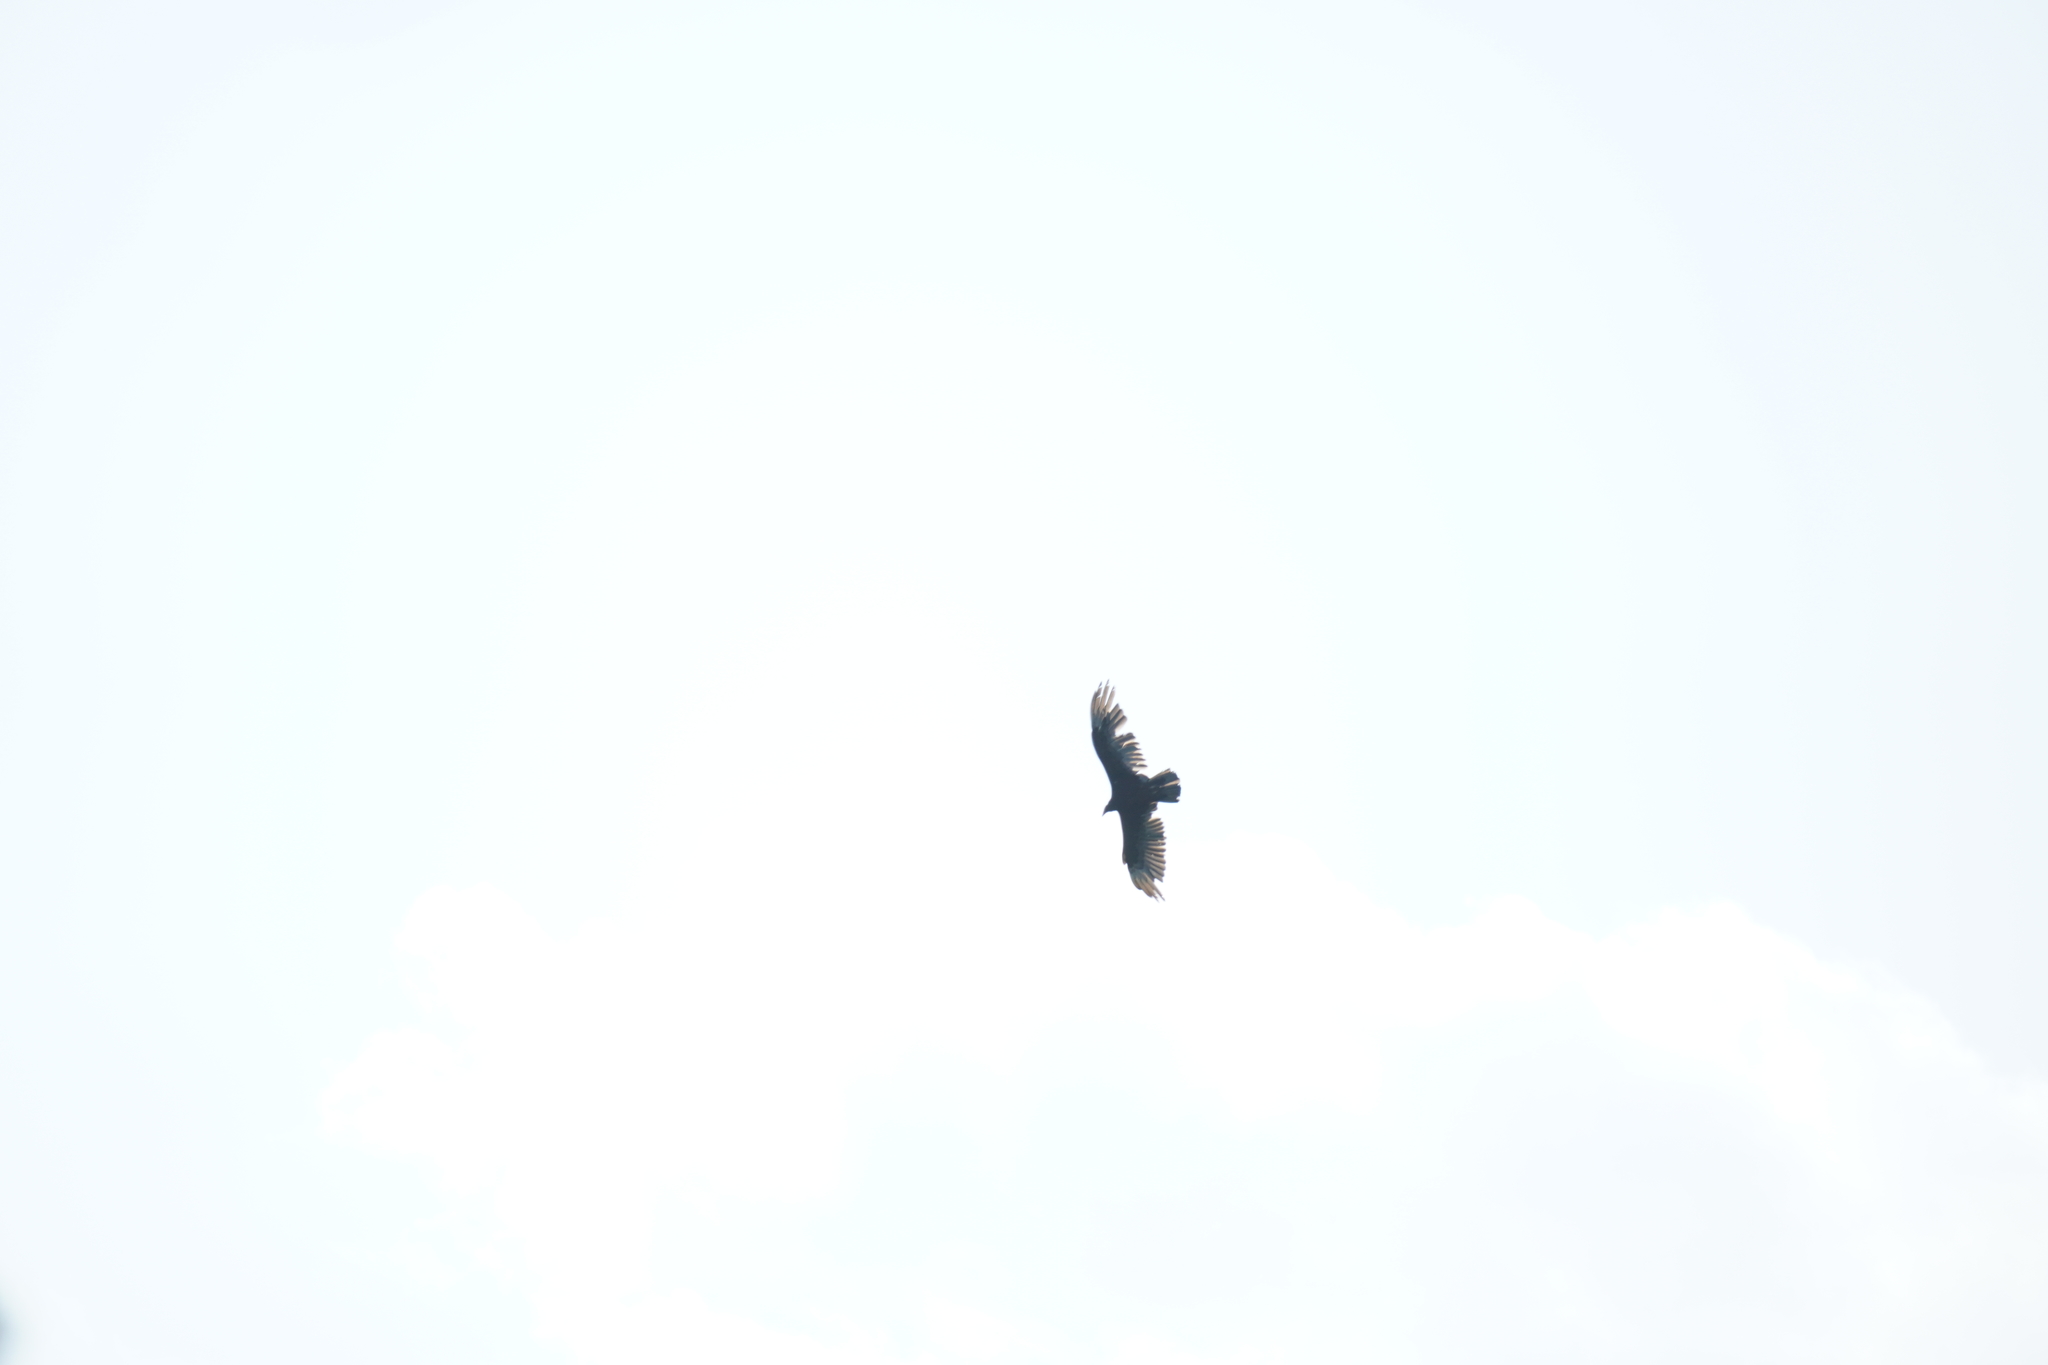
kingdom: Animalia
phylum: Chordata
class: Aves
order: Accipitriformes
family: Cathartidae
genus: Cathartes
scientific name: Cathartes aura
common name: Turkey vulture
